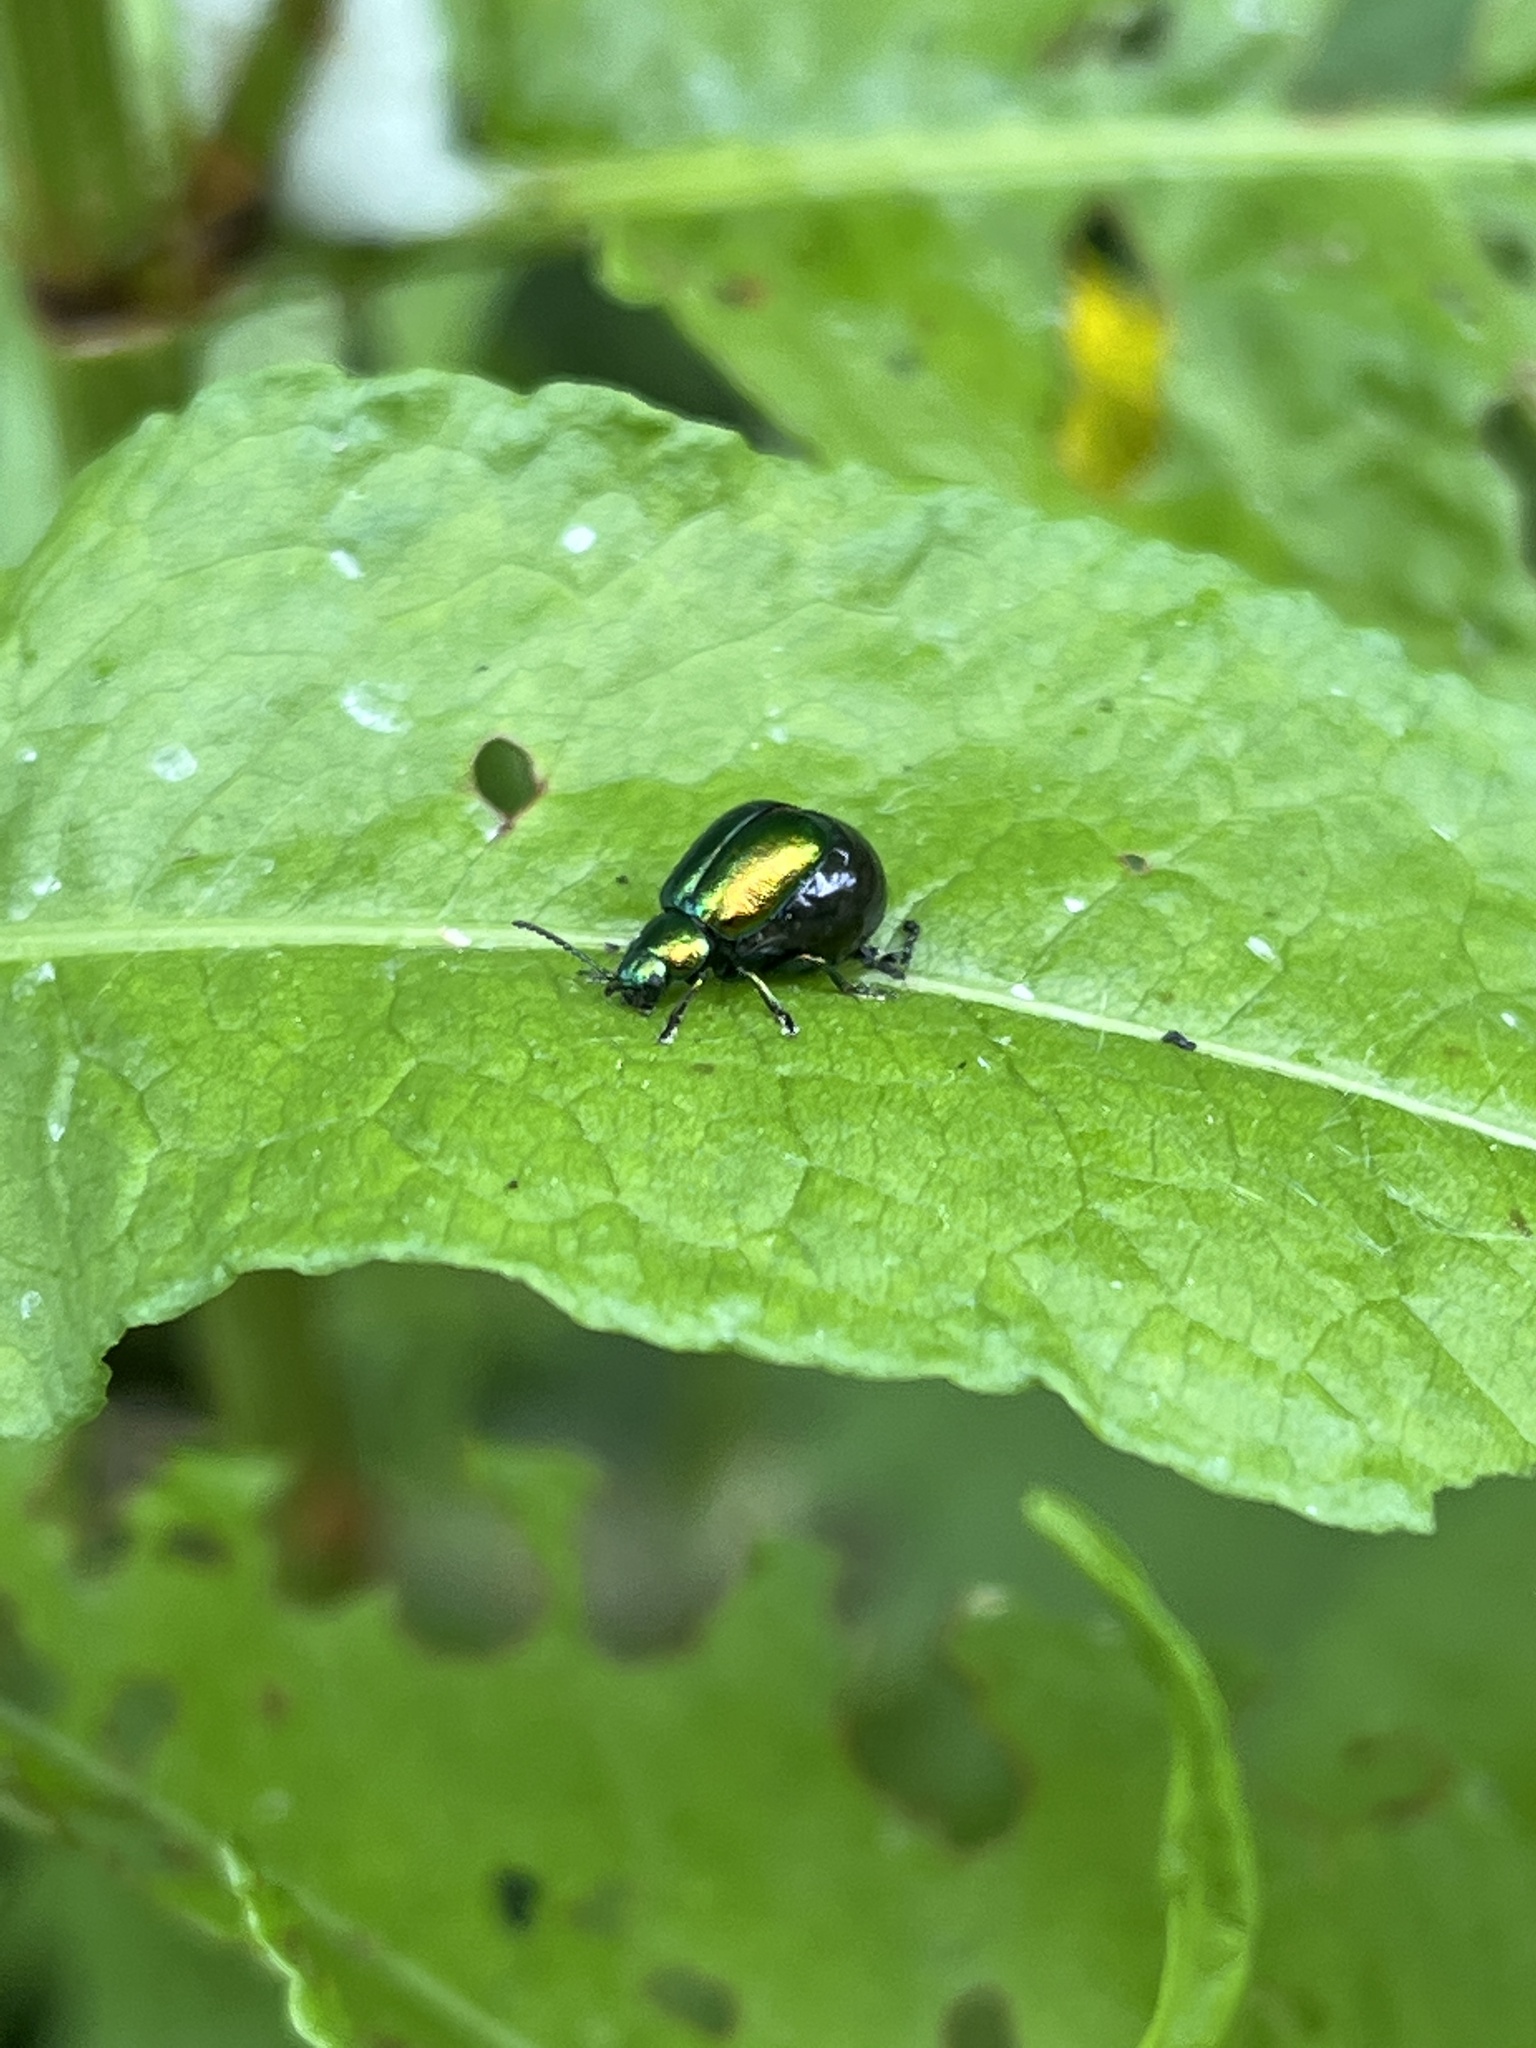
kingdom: Animalia
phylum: Arthropoda
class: Insecta
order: Coleoptera
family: Chrysomelidae
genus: Gastrophysa
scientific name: Gastrophysa viridula
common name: Green dock beetle
